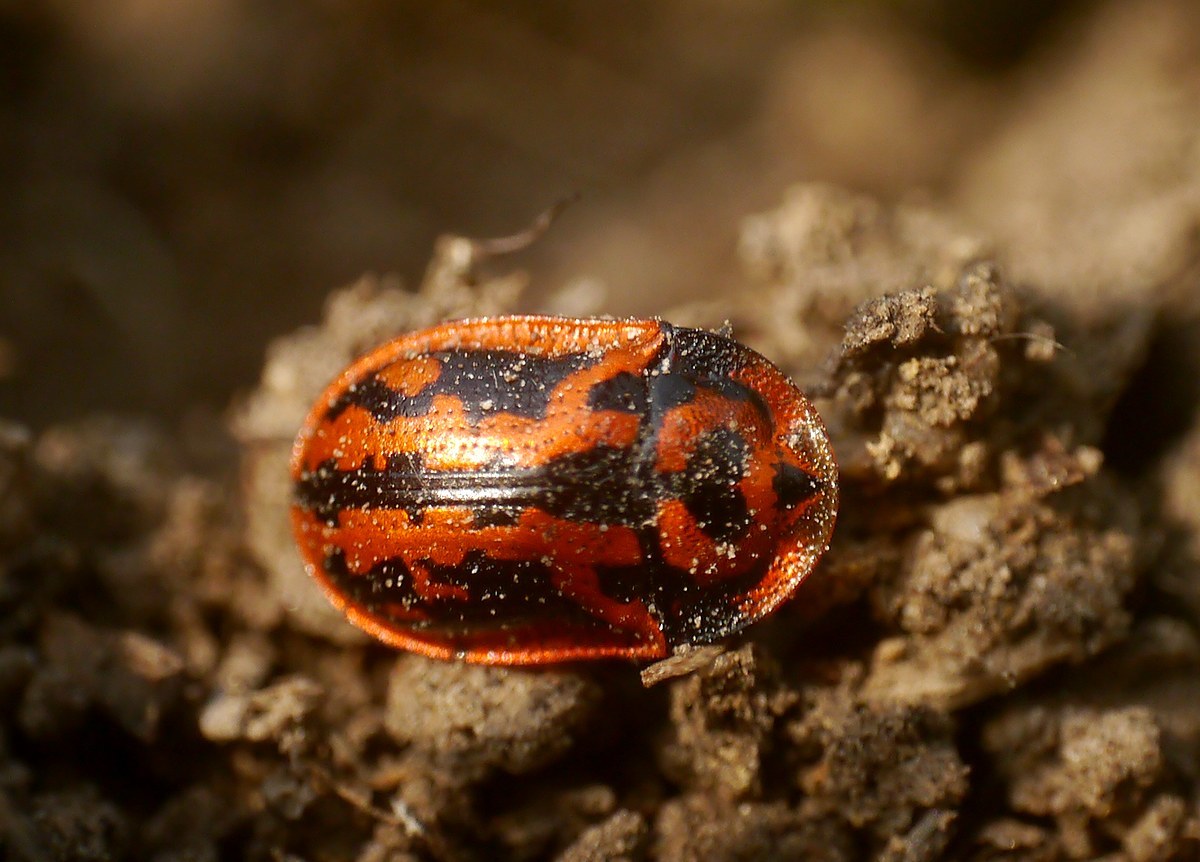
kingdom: Animalia
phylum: Arthropoda
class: Insecta
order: Coleoptera
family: Chrysomelidae
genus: Pilemostoma
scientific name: Pilemostoma fastuosa
